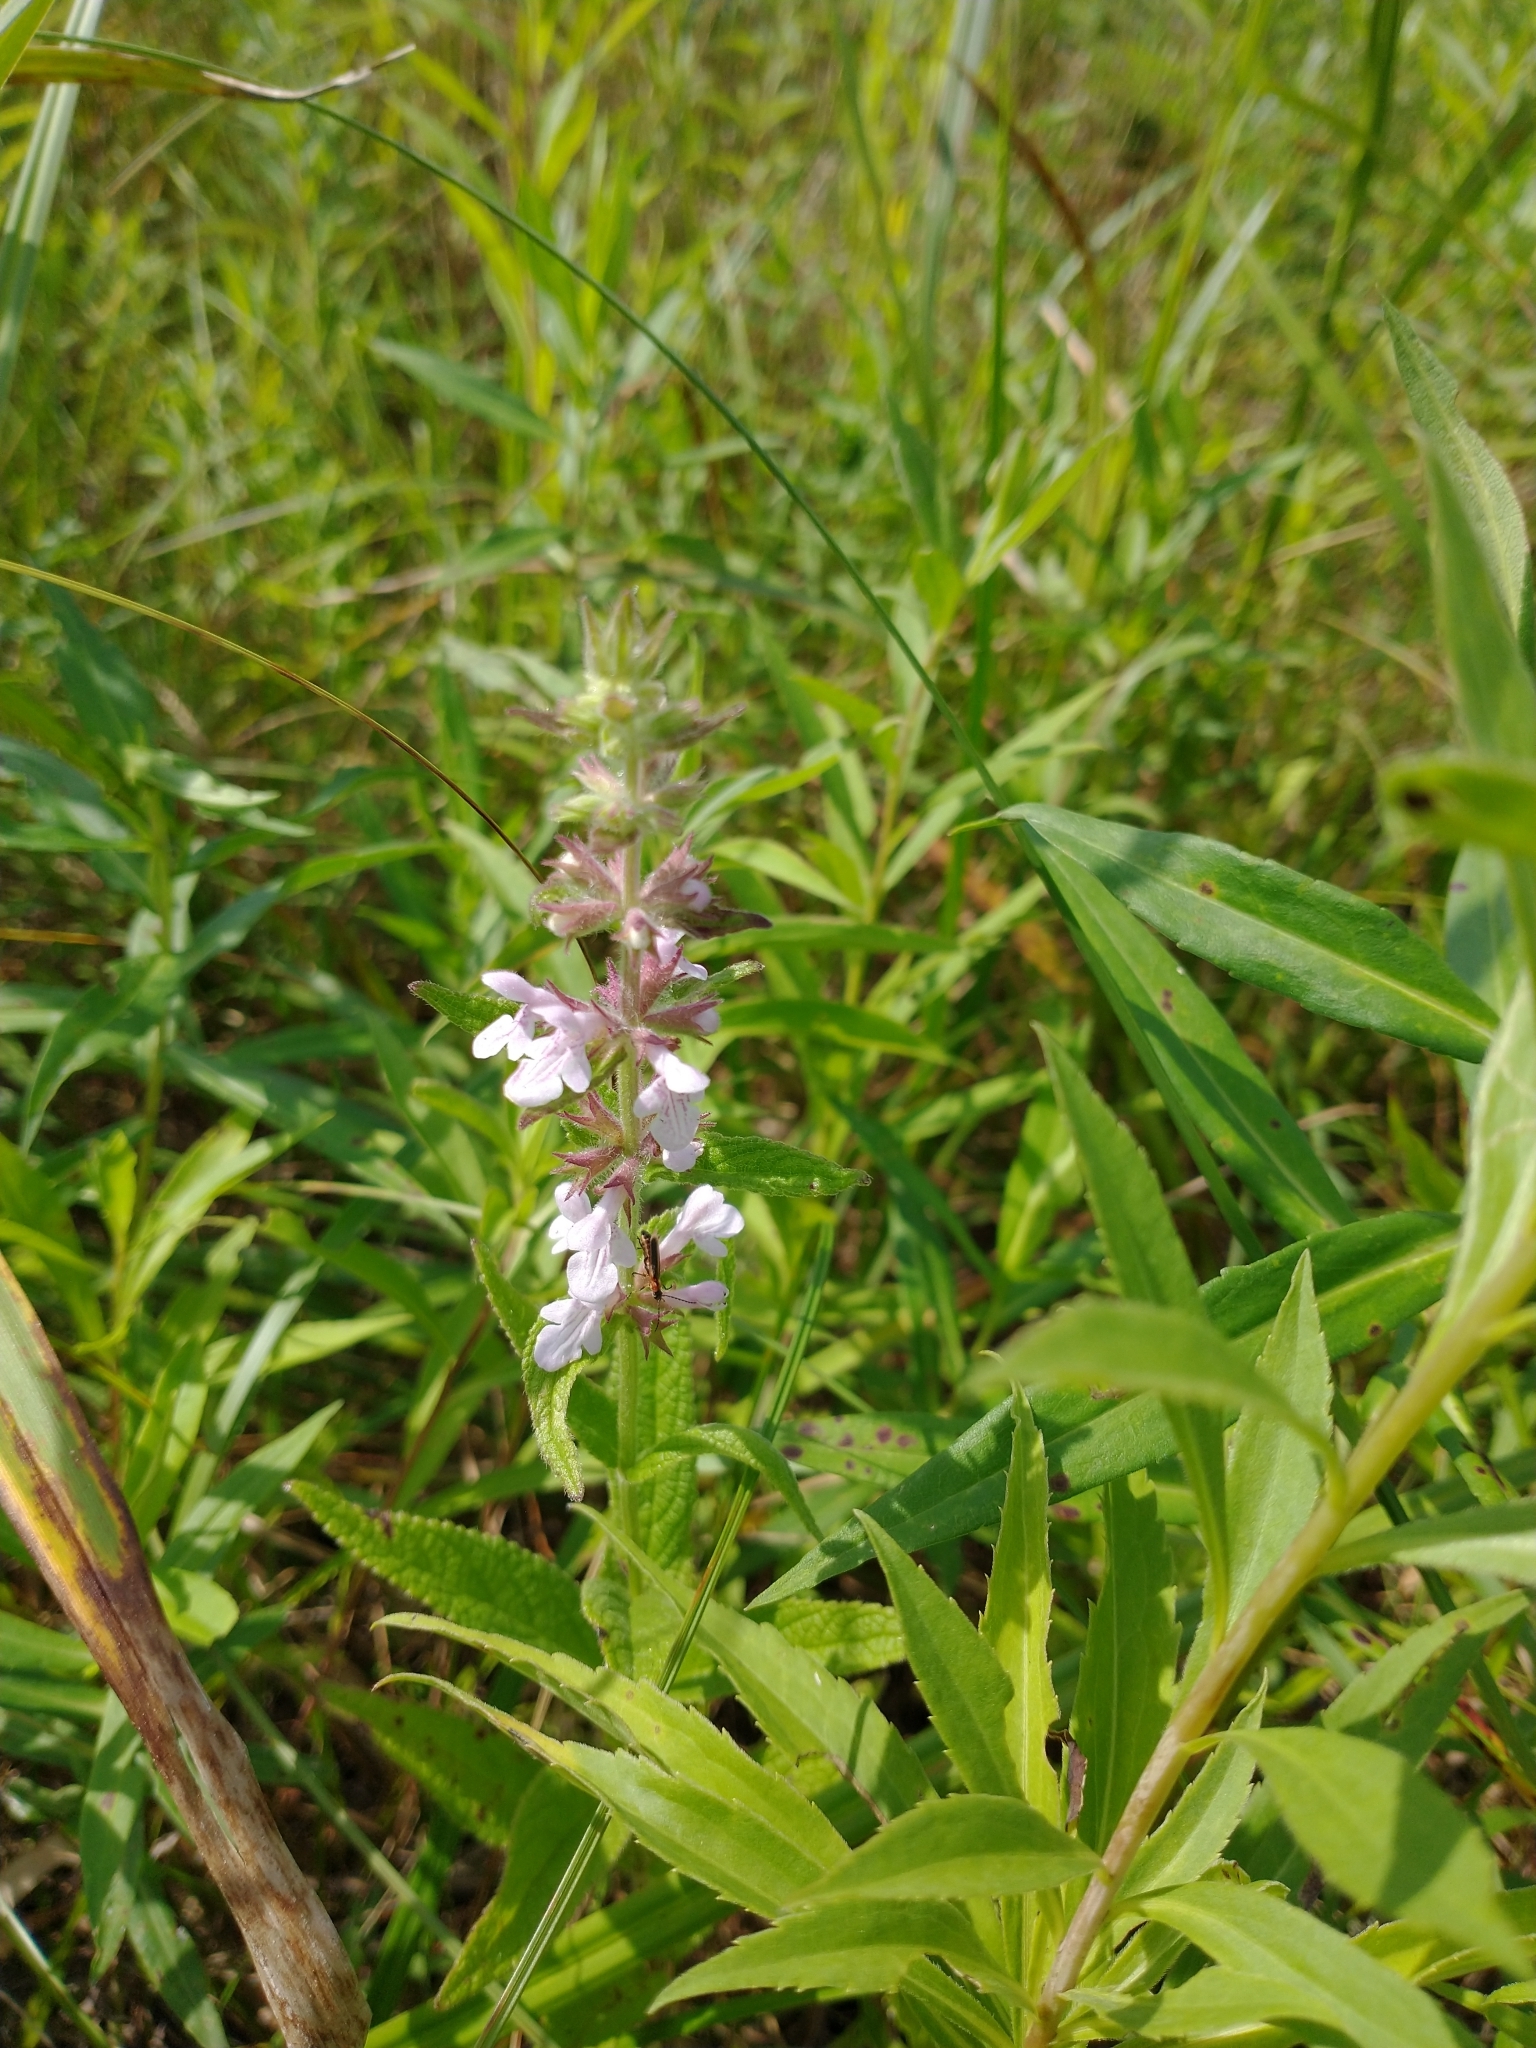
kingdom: Plantae
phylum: Tracheophyta
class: Magnoliopsida
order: Lamiales
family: Lamiaceae
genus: Stachys
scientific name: Stachys palustris
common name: Marsh woundwort
